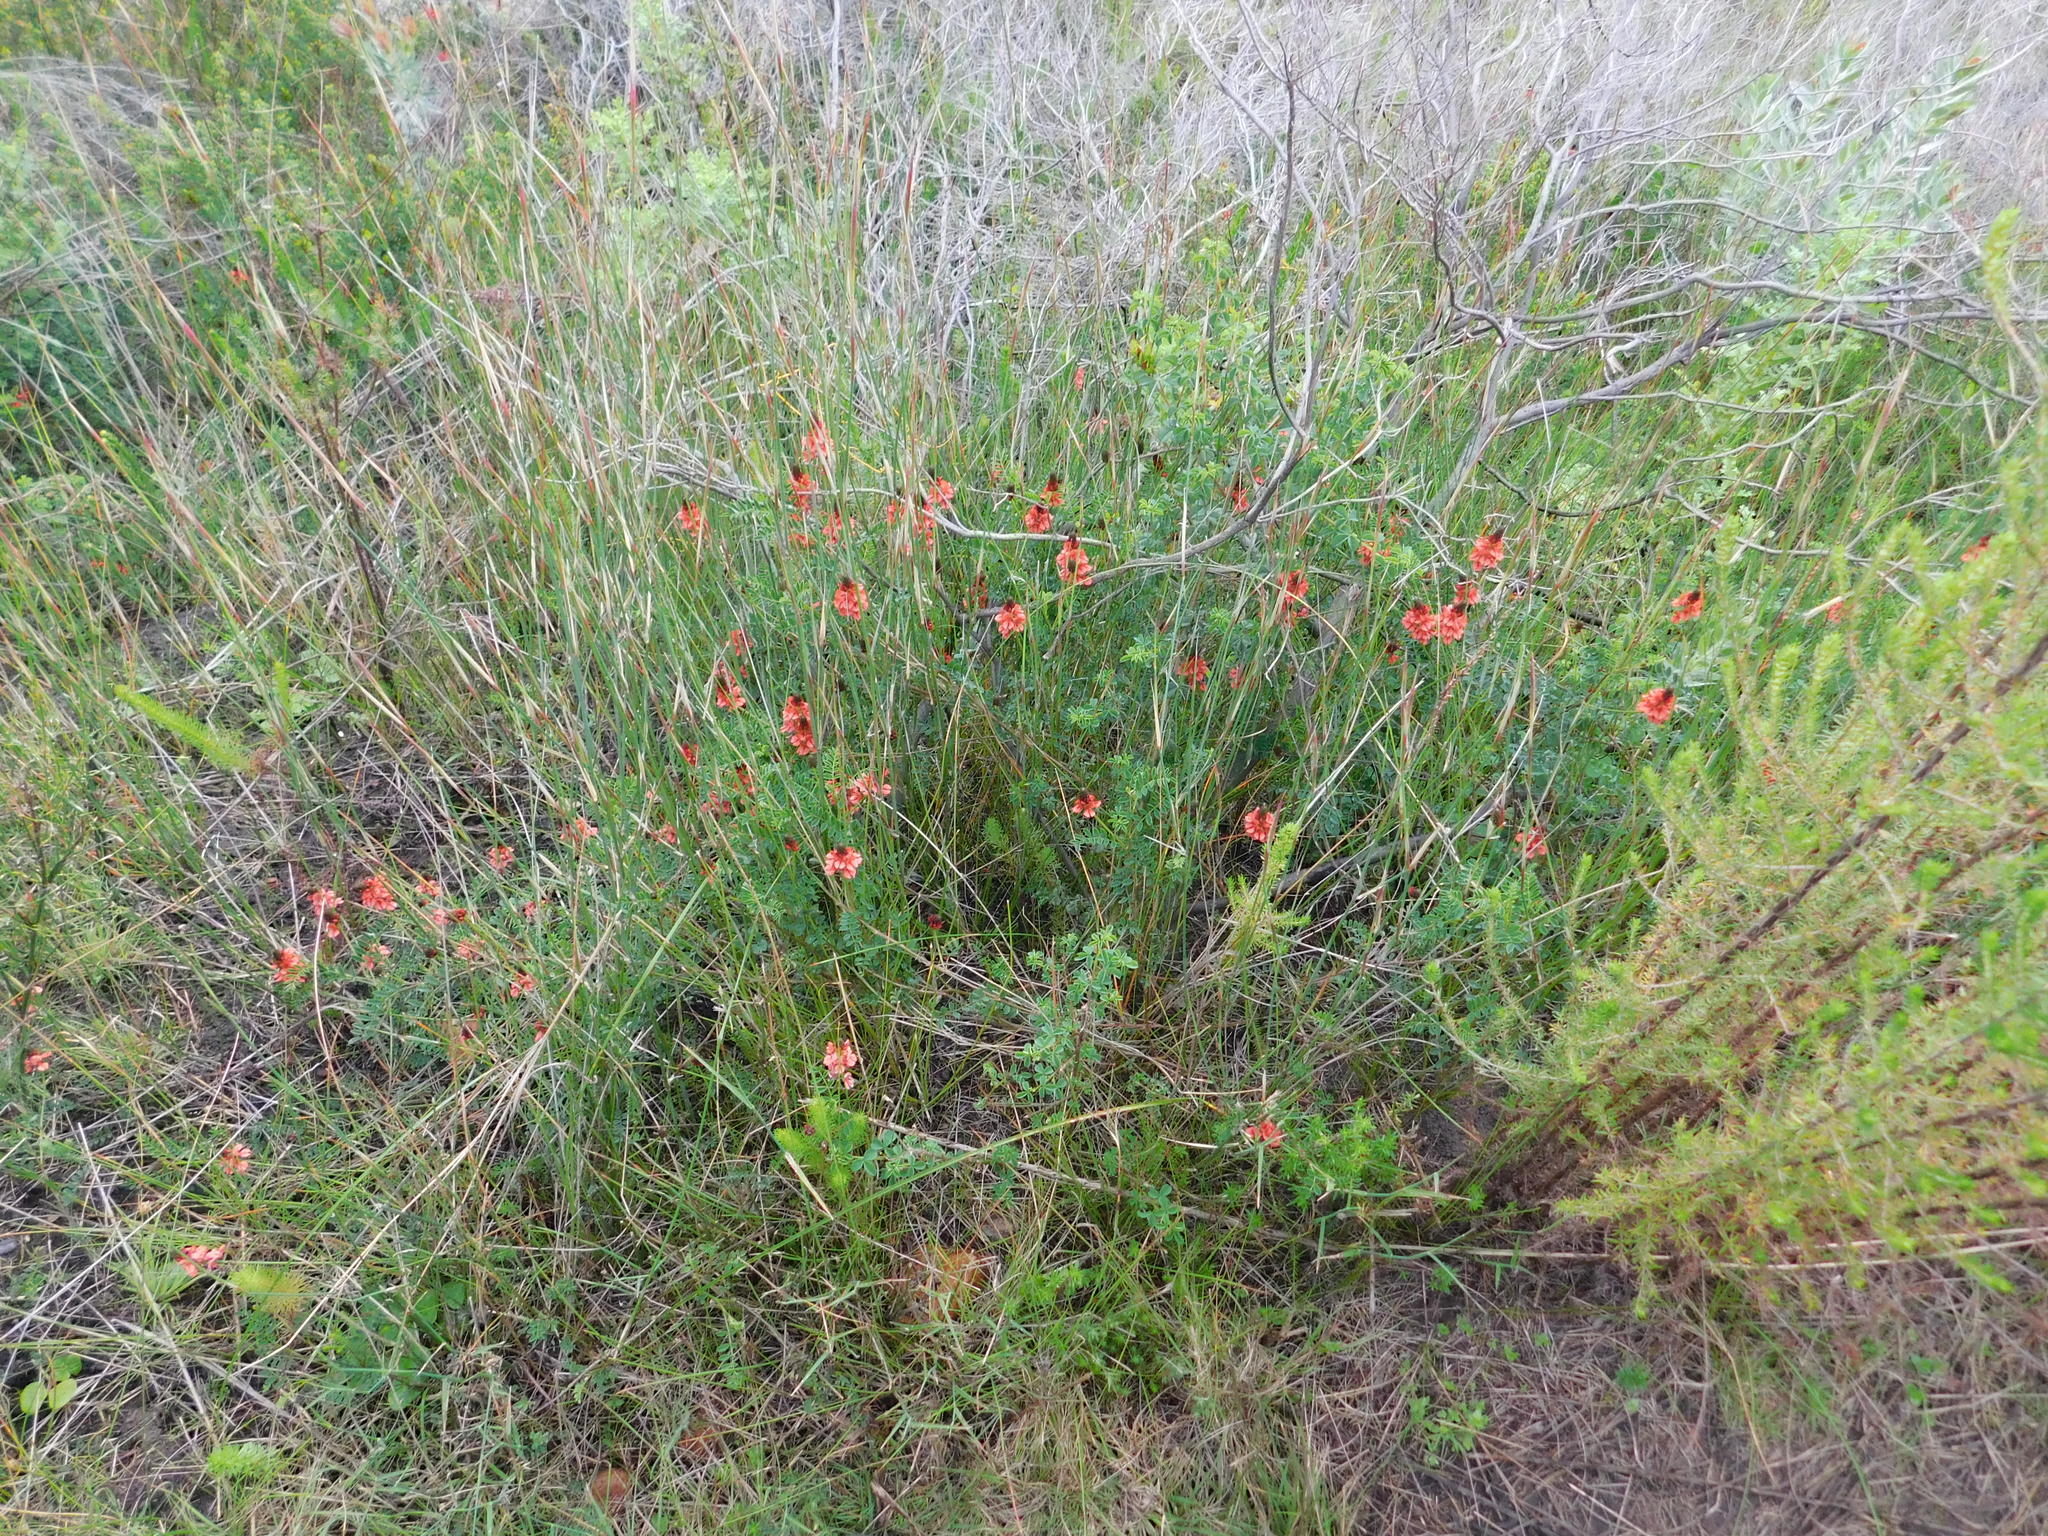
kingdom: Plantae
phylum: Tracheophyta
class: Magnoliopsida
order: Fabales
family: Fabaceae
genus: Indigofera
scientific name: Indigofera capillaris
